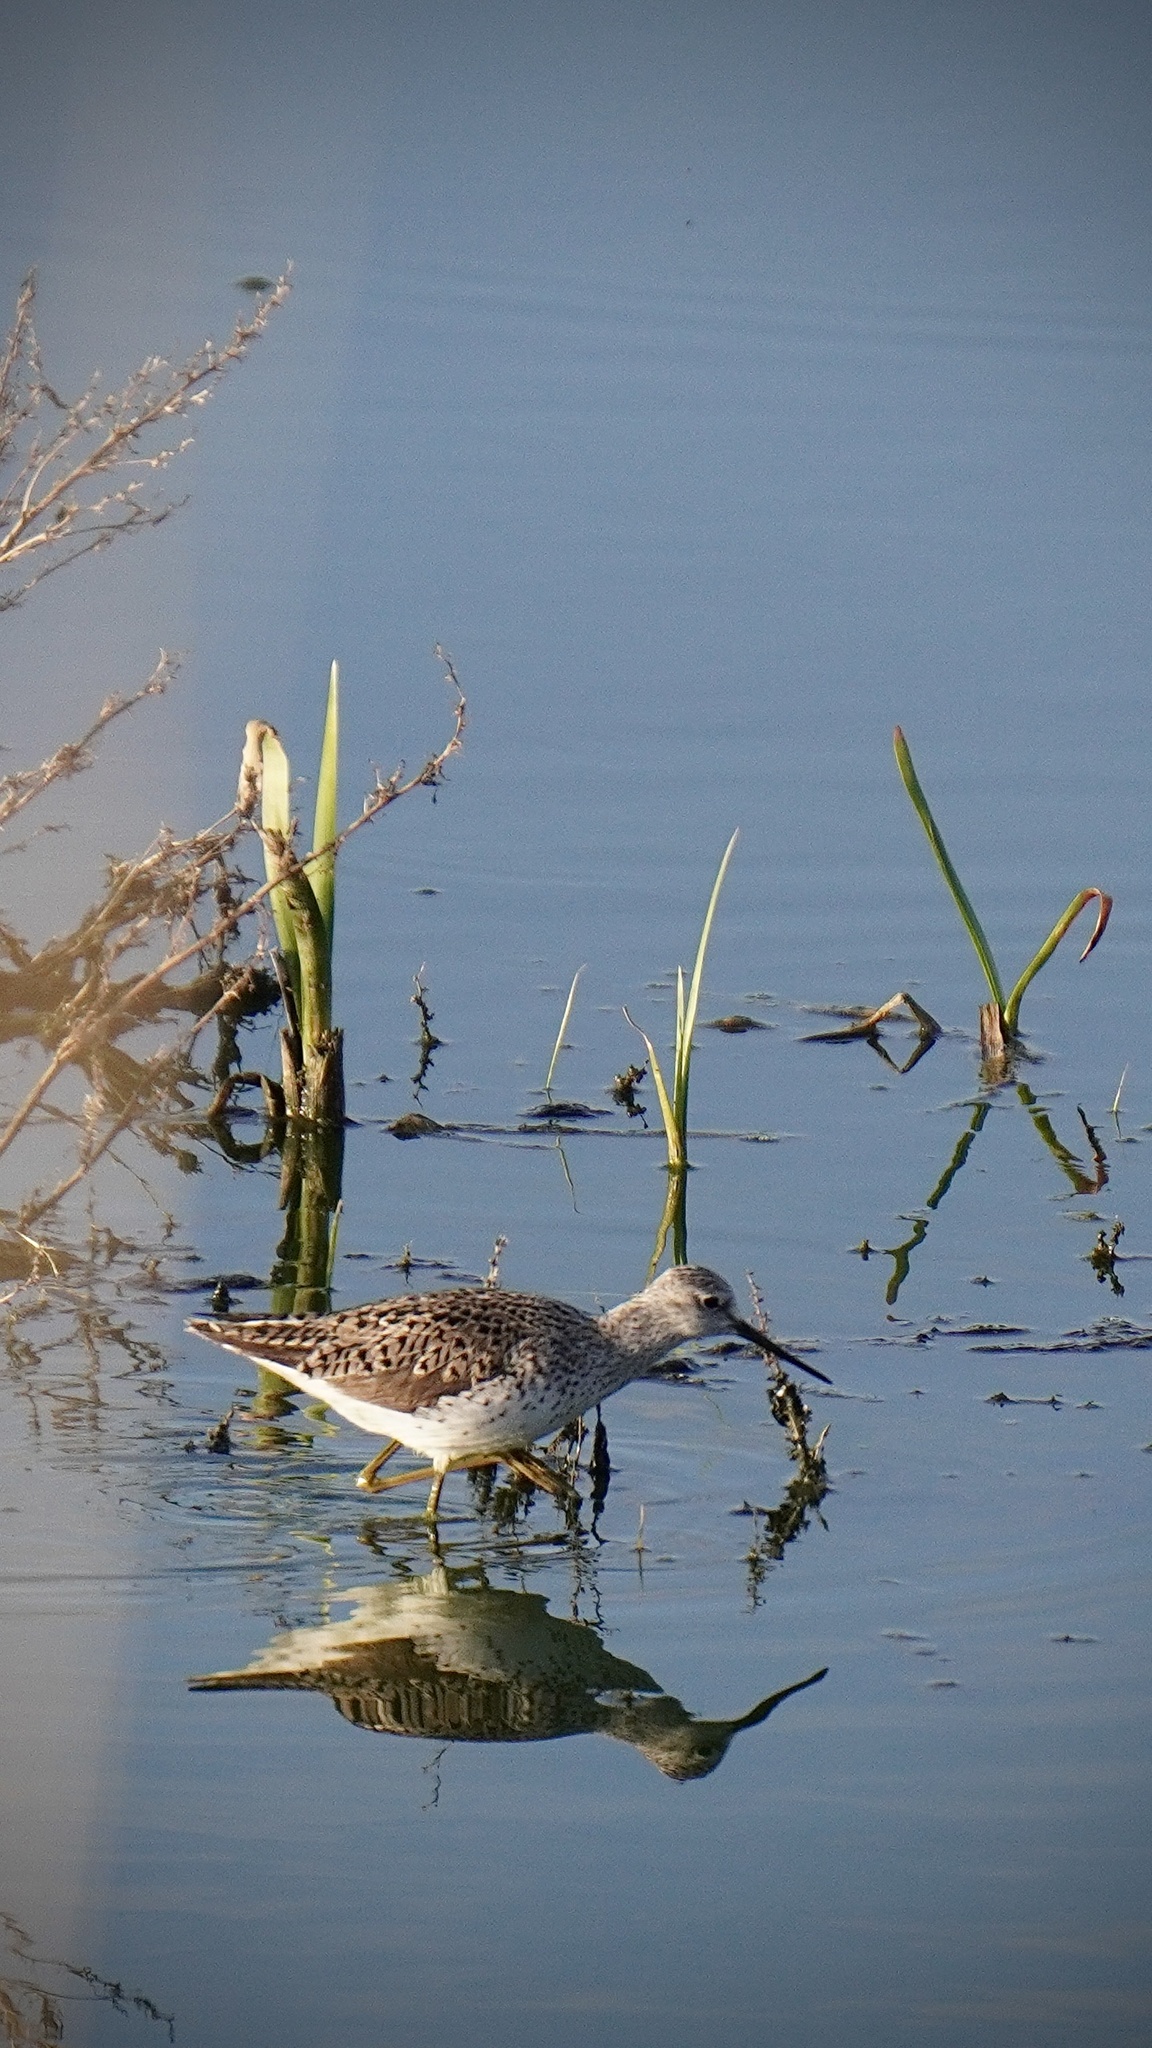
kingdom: Animalia
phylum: Chordata
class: Aves
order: Charadriiformes
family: Scolopacidae
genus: Tringa
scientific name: Tringa stagnatilis
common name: Marsh sandpiper
